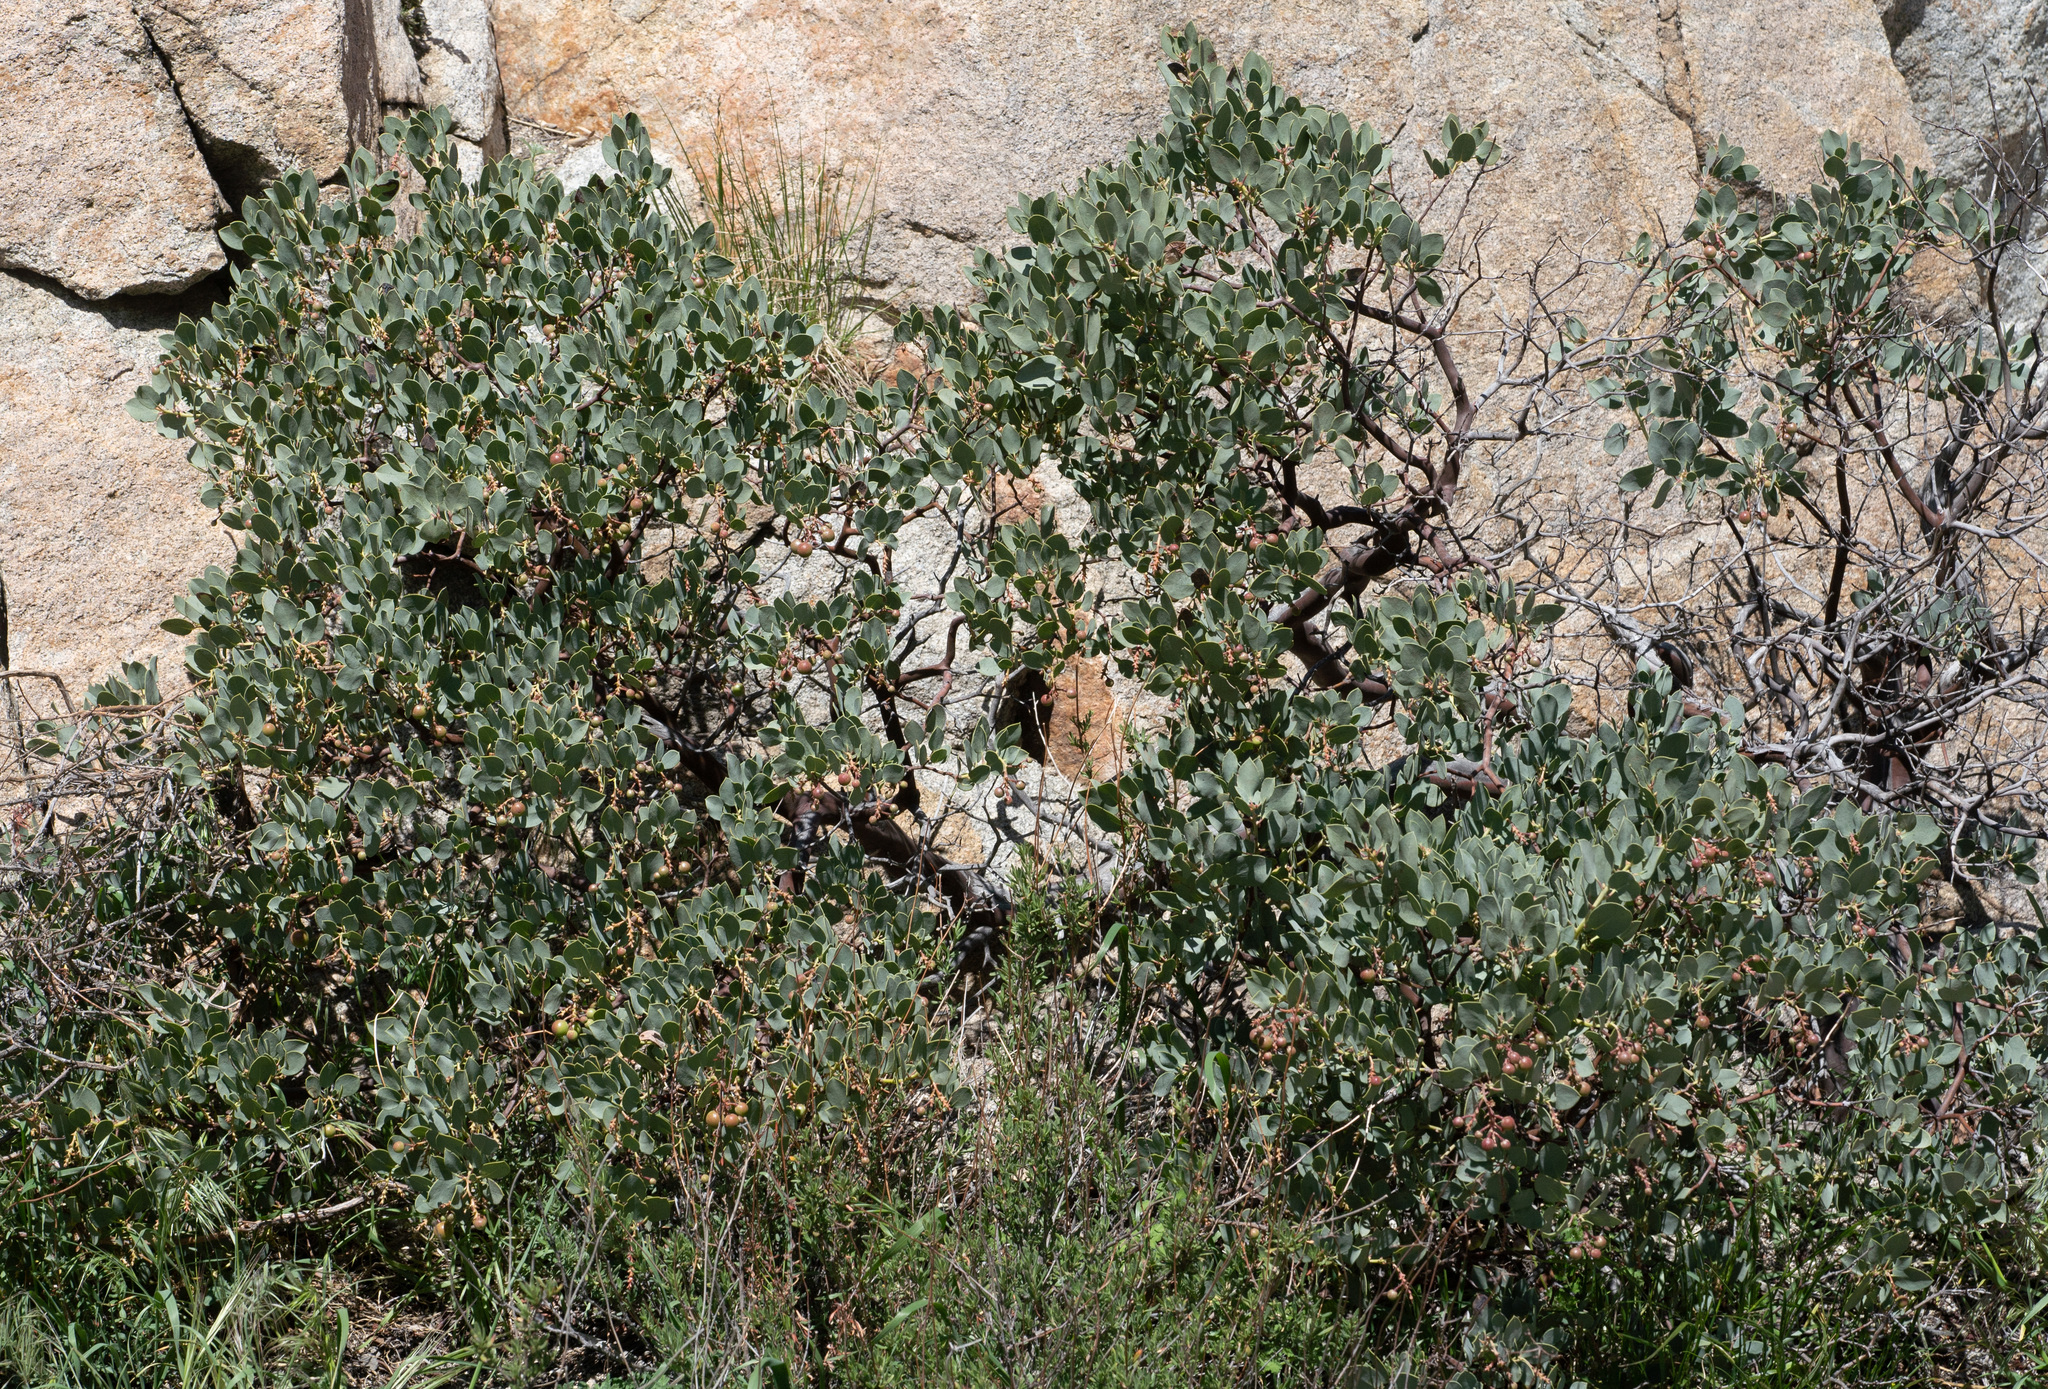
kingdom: Plantae
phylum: Tracheophyta
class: Magnoliopsida
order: Ericales
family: Ericaceae
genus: Arctostaphylos
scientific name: Arctostaphylos glauca
